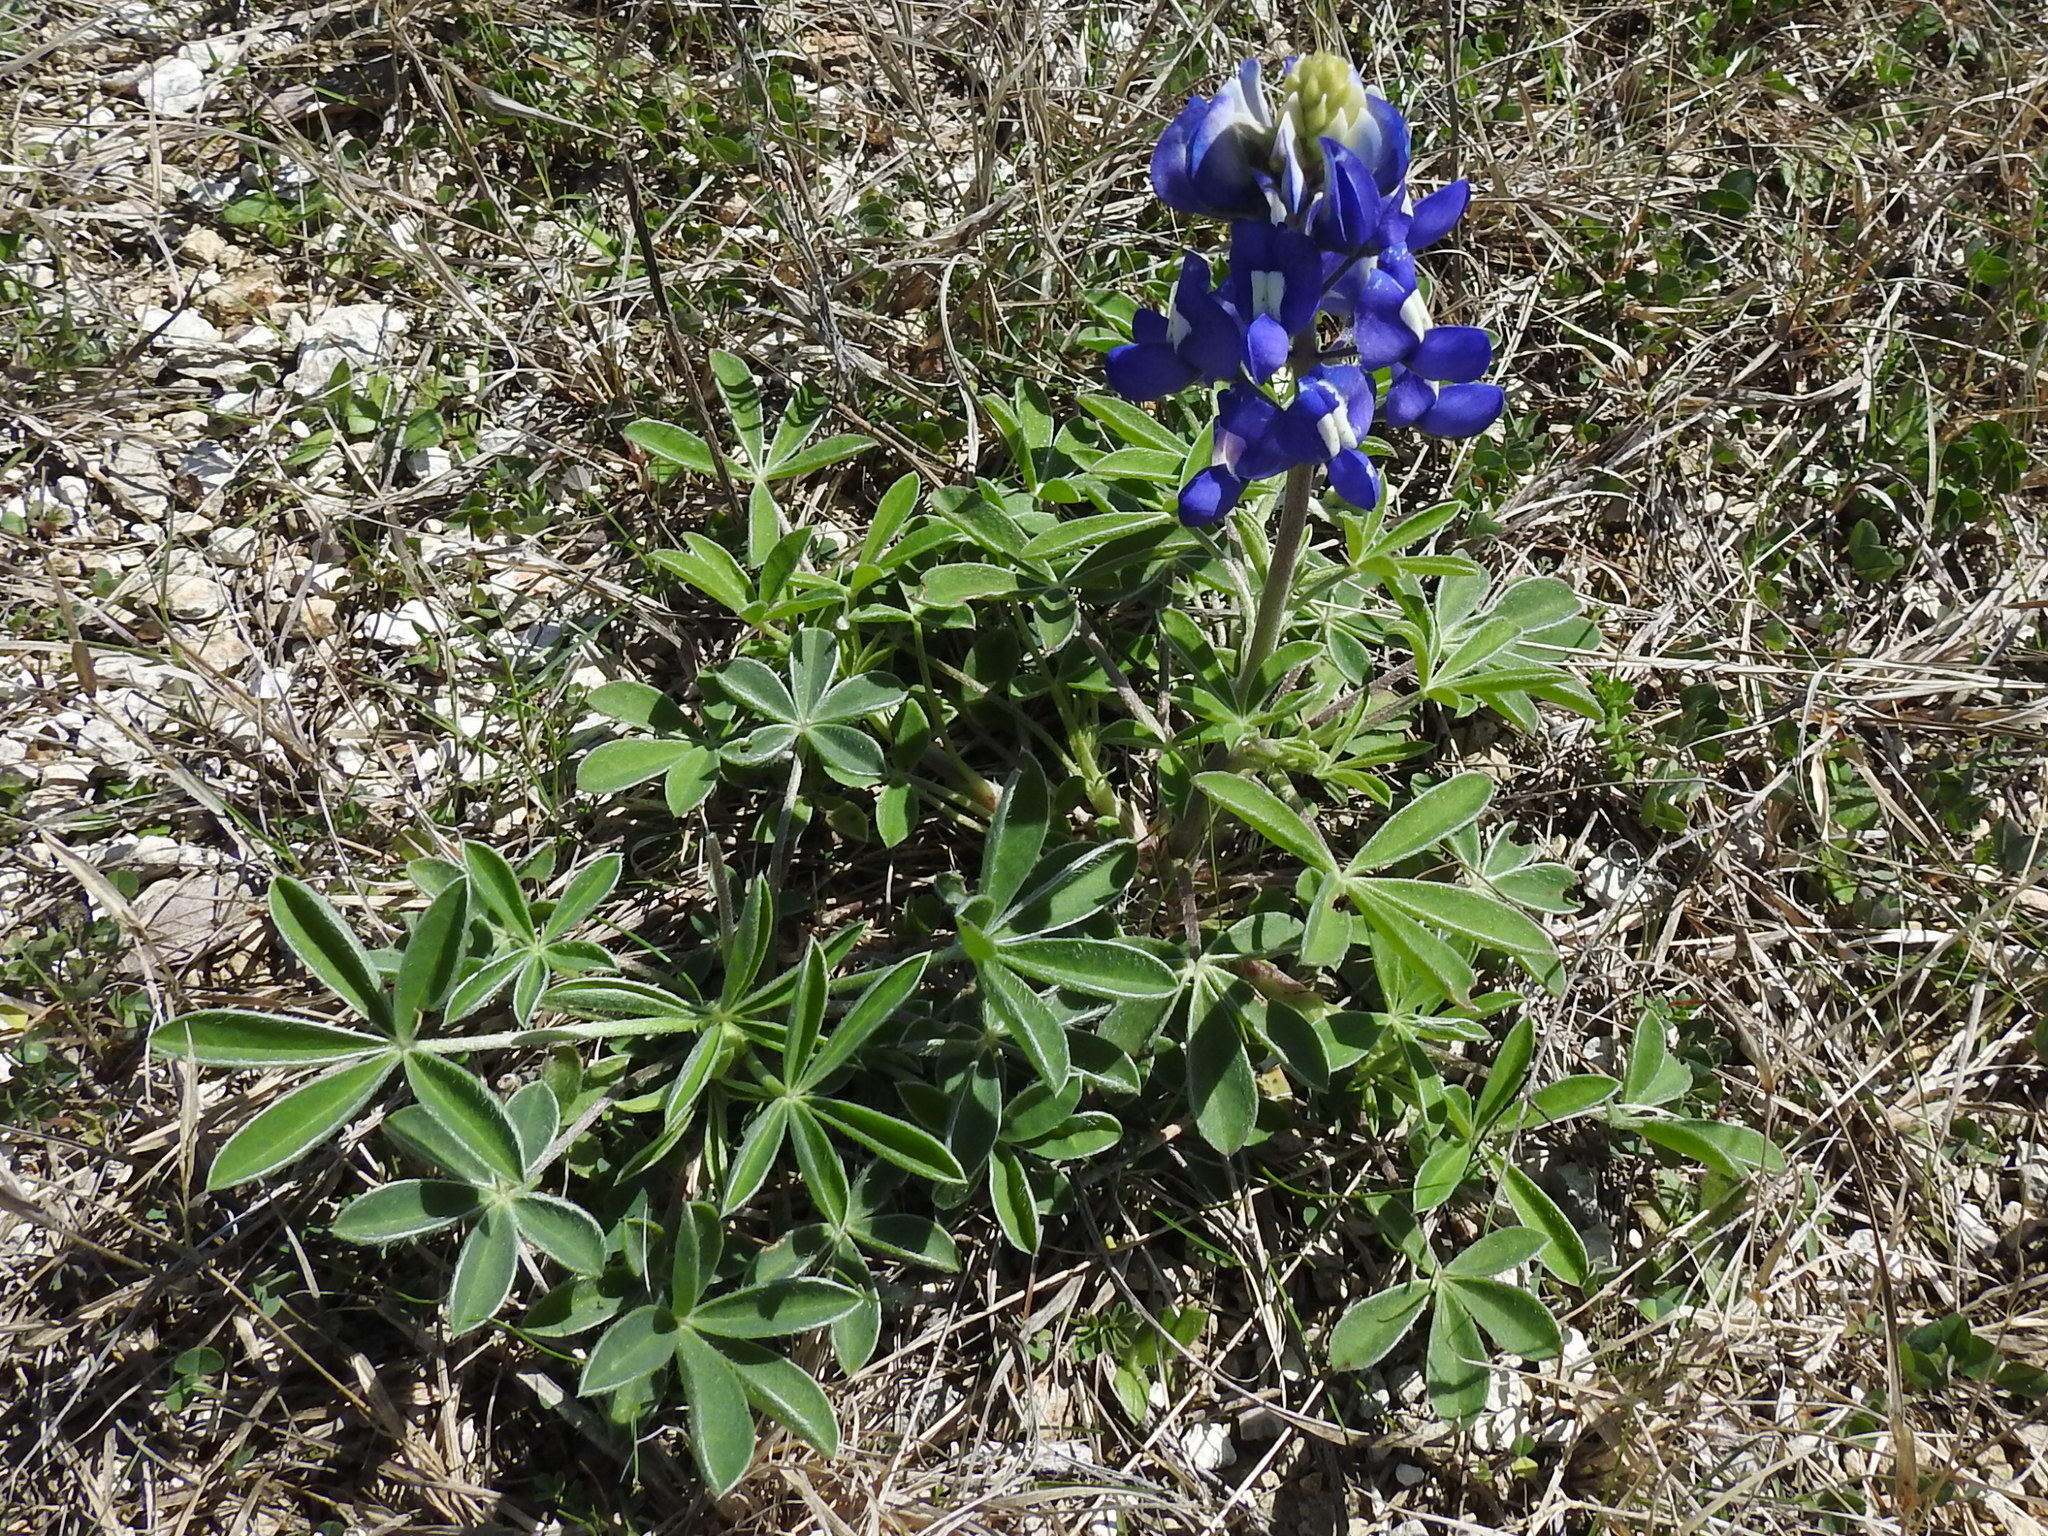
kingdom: Plantae
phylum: Tracheophyta
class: Magnoliopsida
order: Fabales
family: Fabaceae
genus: Lupinus
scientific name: Lupinus texensis
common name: Texas bluebonnet
